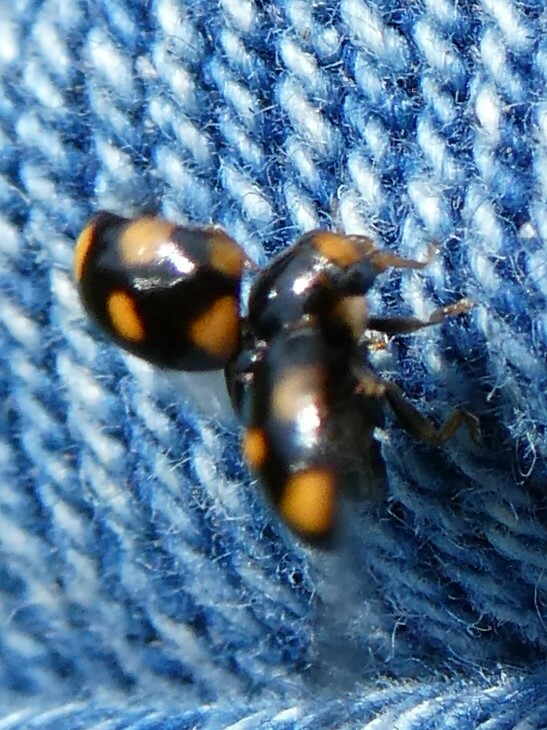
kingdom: Animalia
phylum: Arthropoda
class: Insecta
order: Coleoptera
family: Coccinellidae
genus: Brachiacantha
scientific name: Brachiacantha ursina
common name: Ursine spurleg lady beetle
